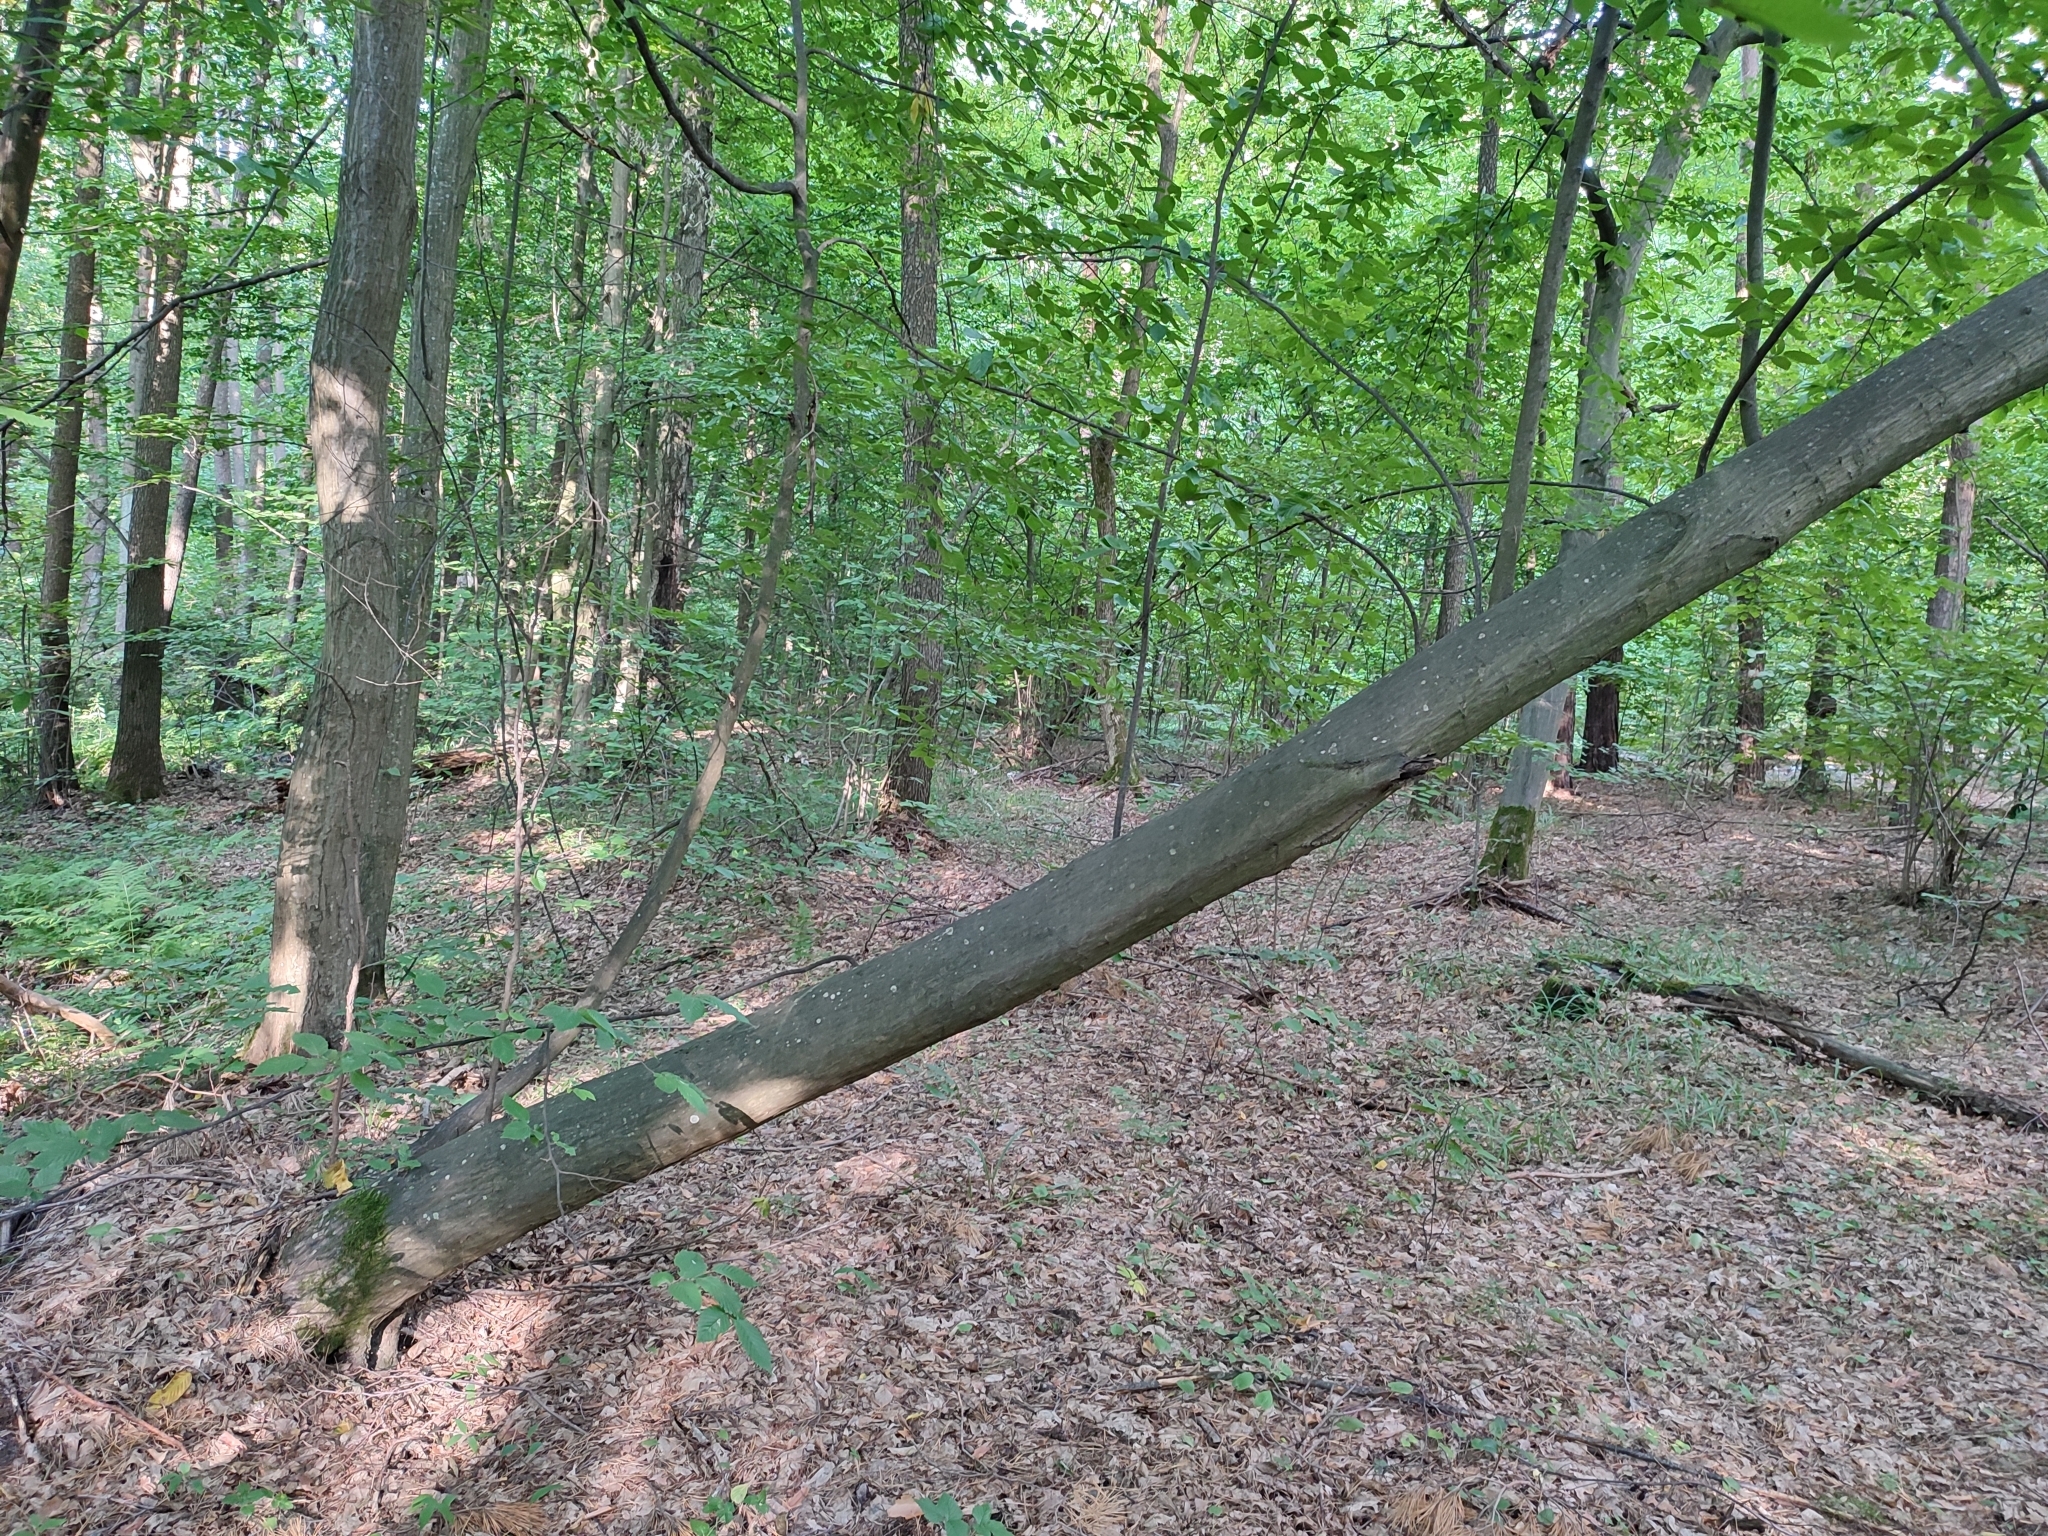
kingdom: Plantae
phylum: Tracheophyta
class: Magnoliopsida
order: Fagales
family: Betulaceae
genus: Carpinus
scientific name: Carpinus betulus
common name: Hornbeam
